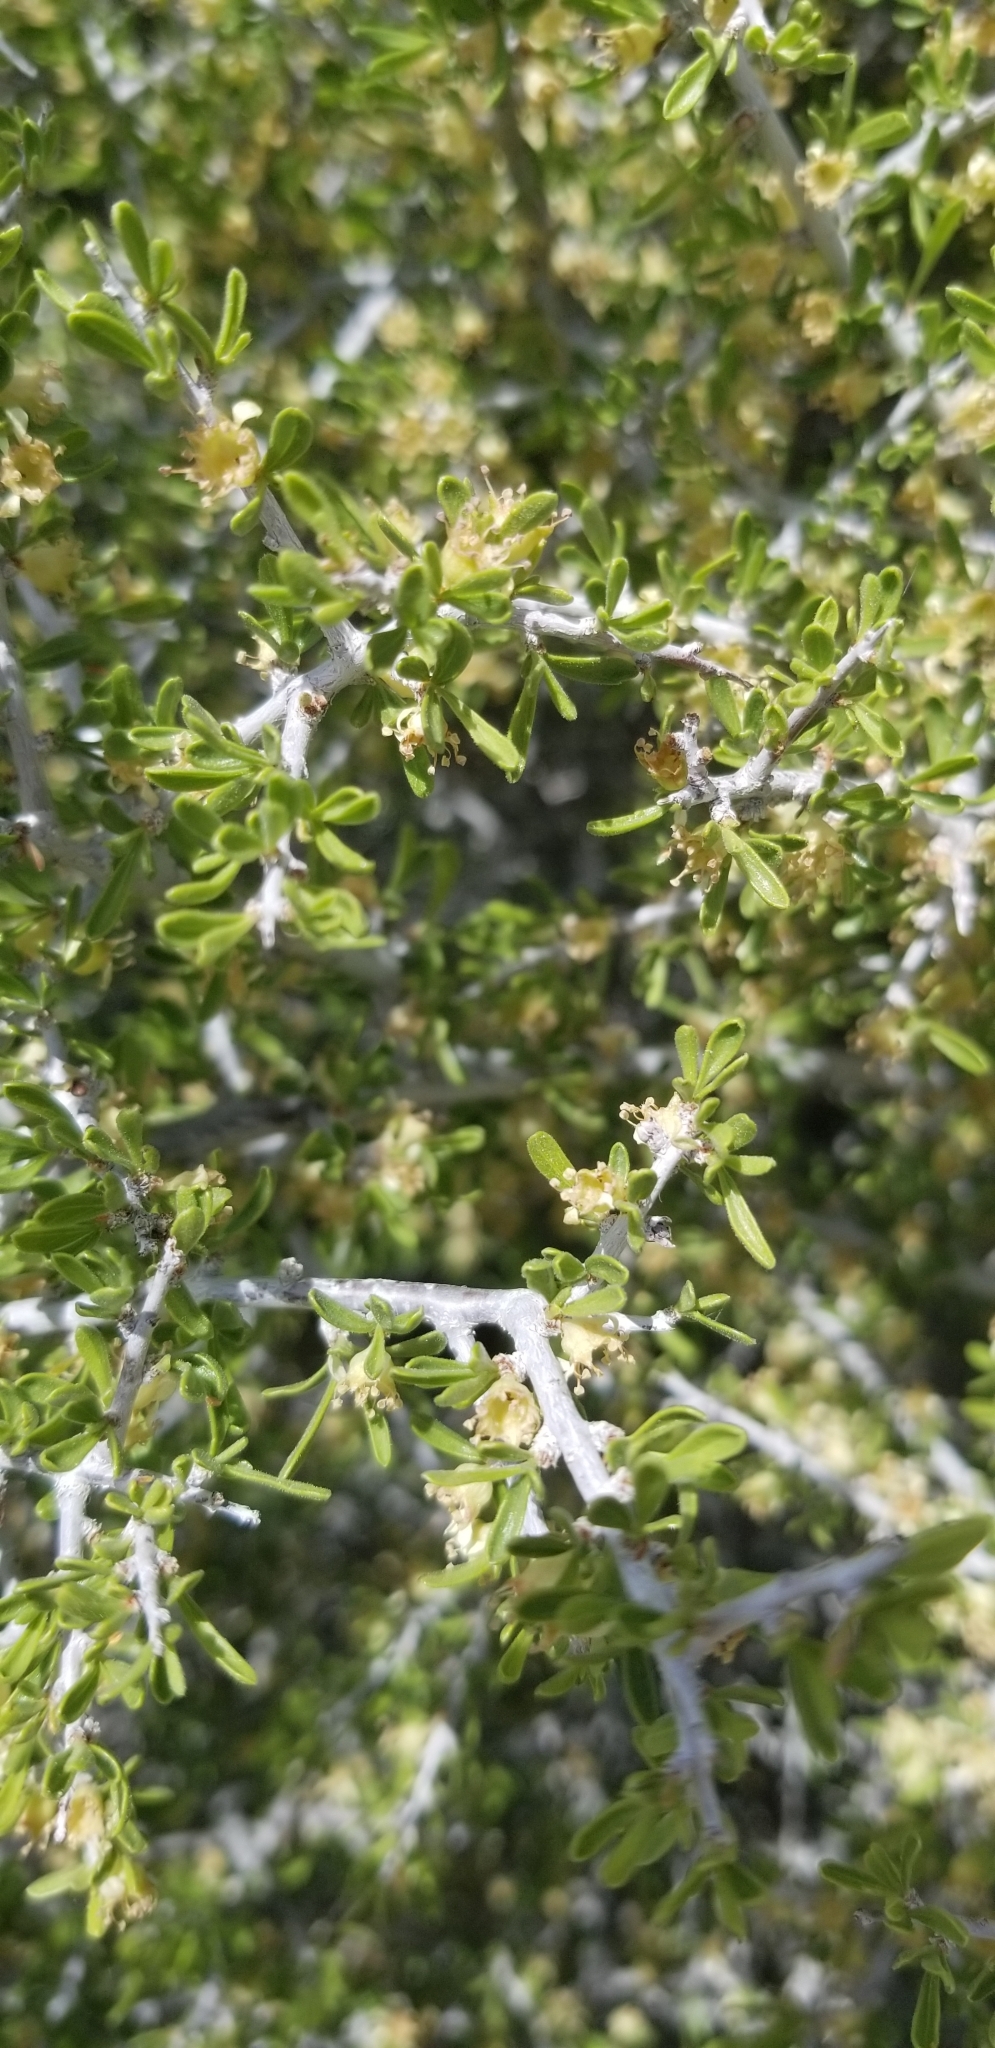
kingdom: Plantae
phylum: Tracheophyta
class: Magnoliopsida
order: Rosales
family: Rosaceae
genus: Prunus
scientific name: Prunus fasciculata
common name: Desert almond
